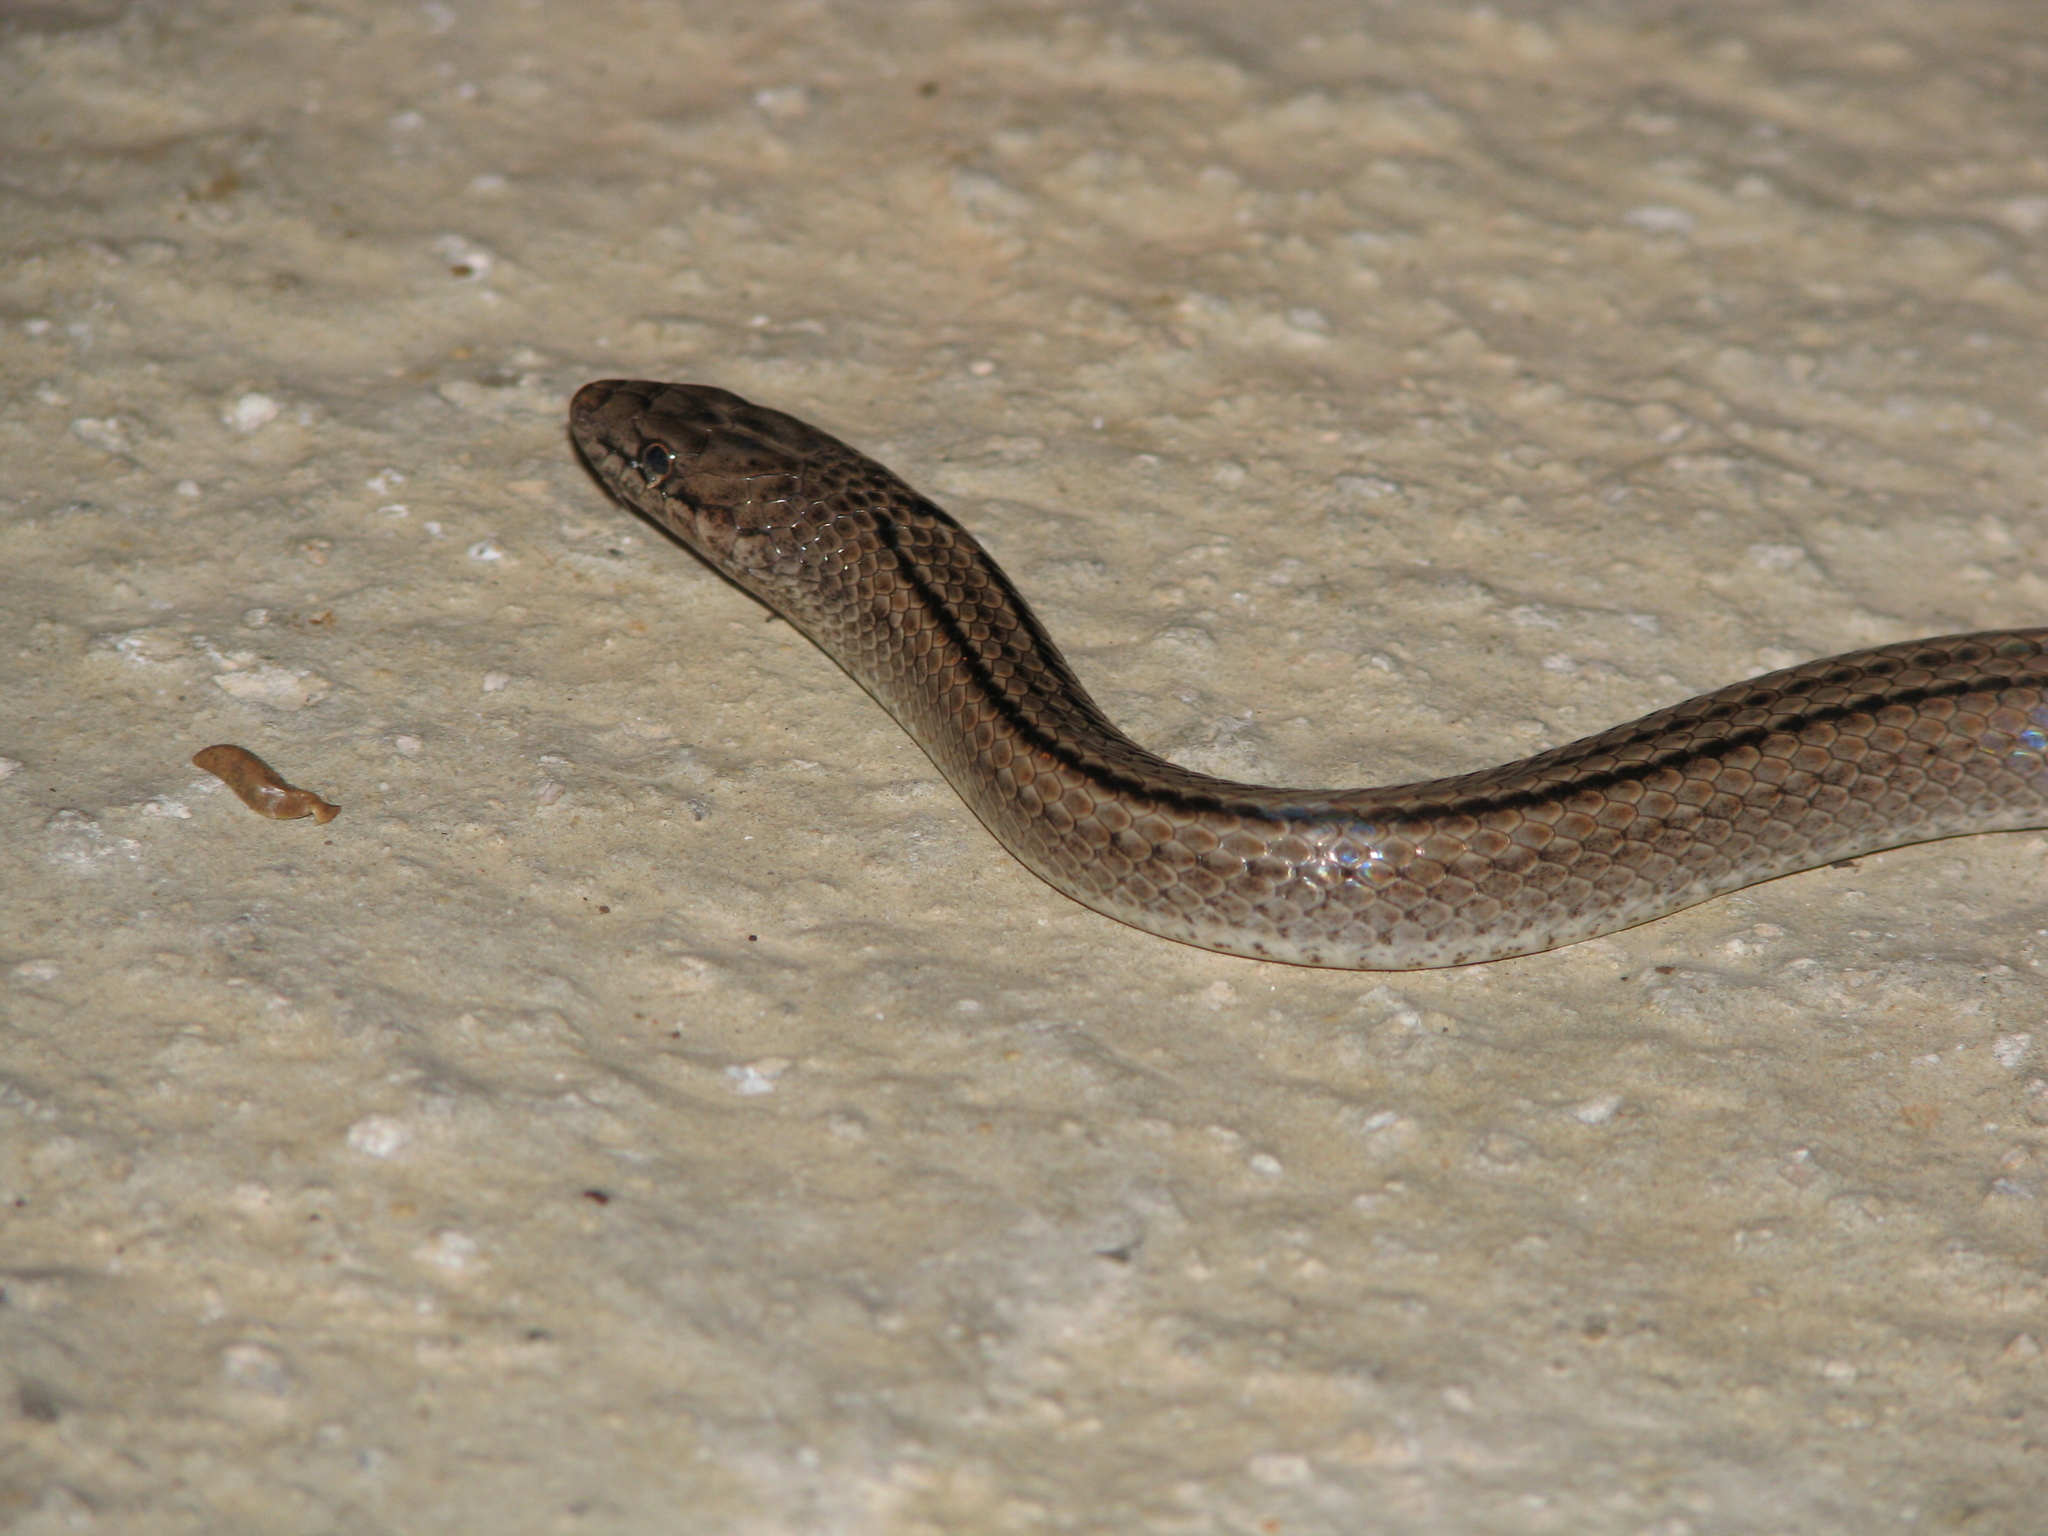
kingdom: Animalia
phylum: Chordata
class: Squamata
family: Colubridae
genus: Erythrolamprus
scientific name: Erythrolamprus triscalis
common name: Three-scaled ground snake
